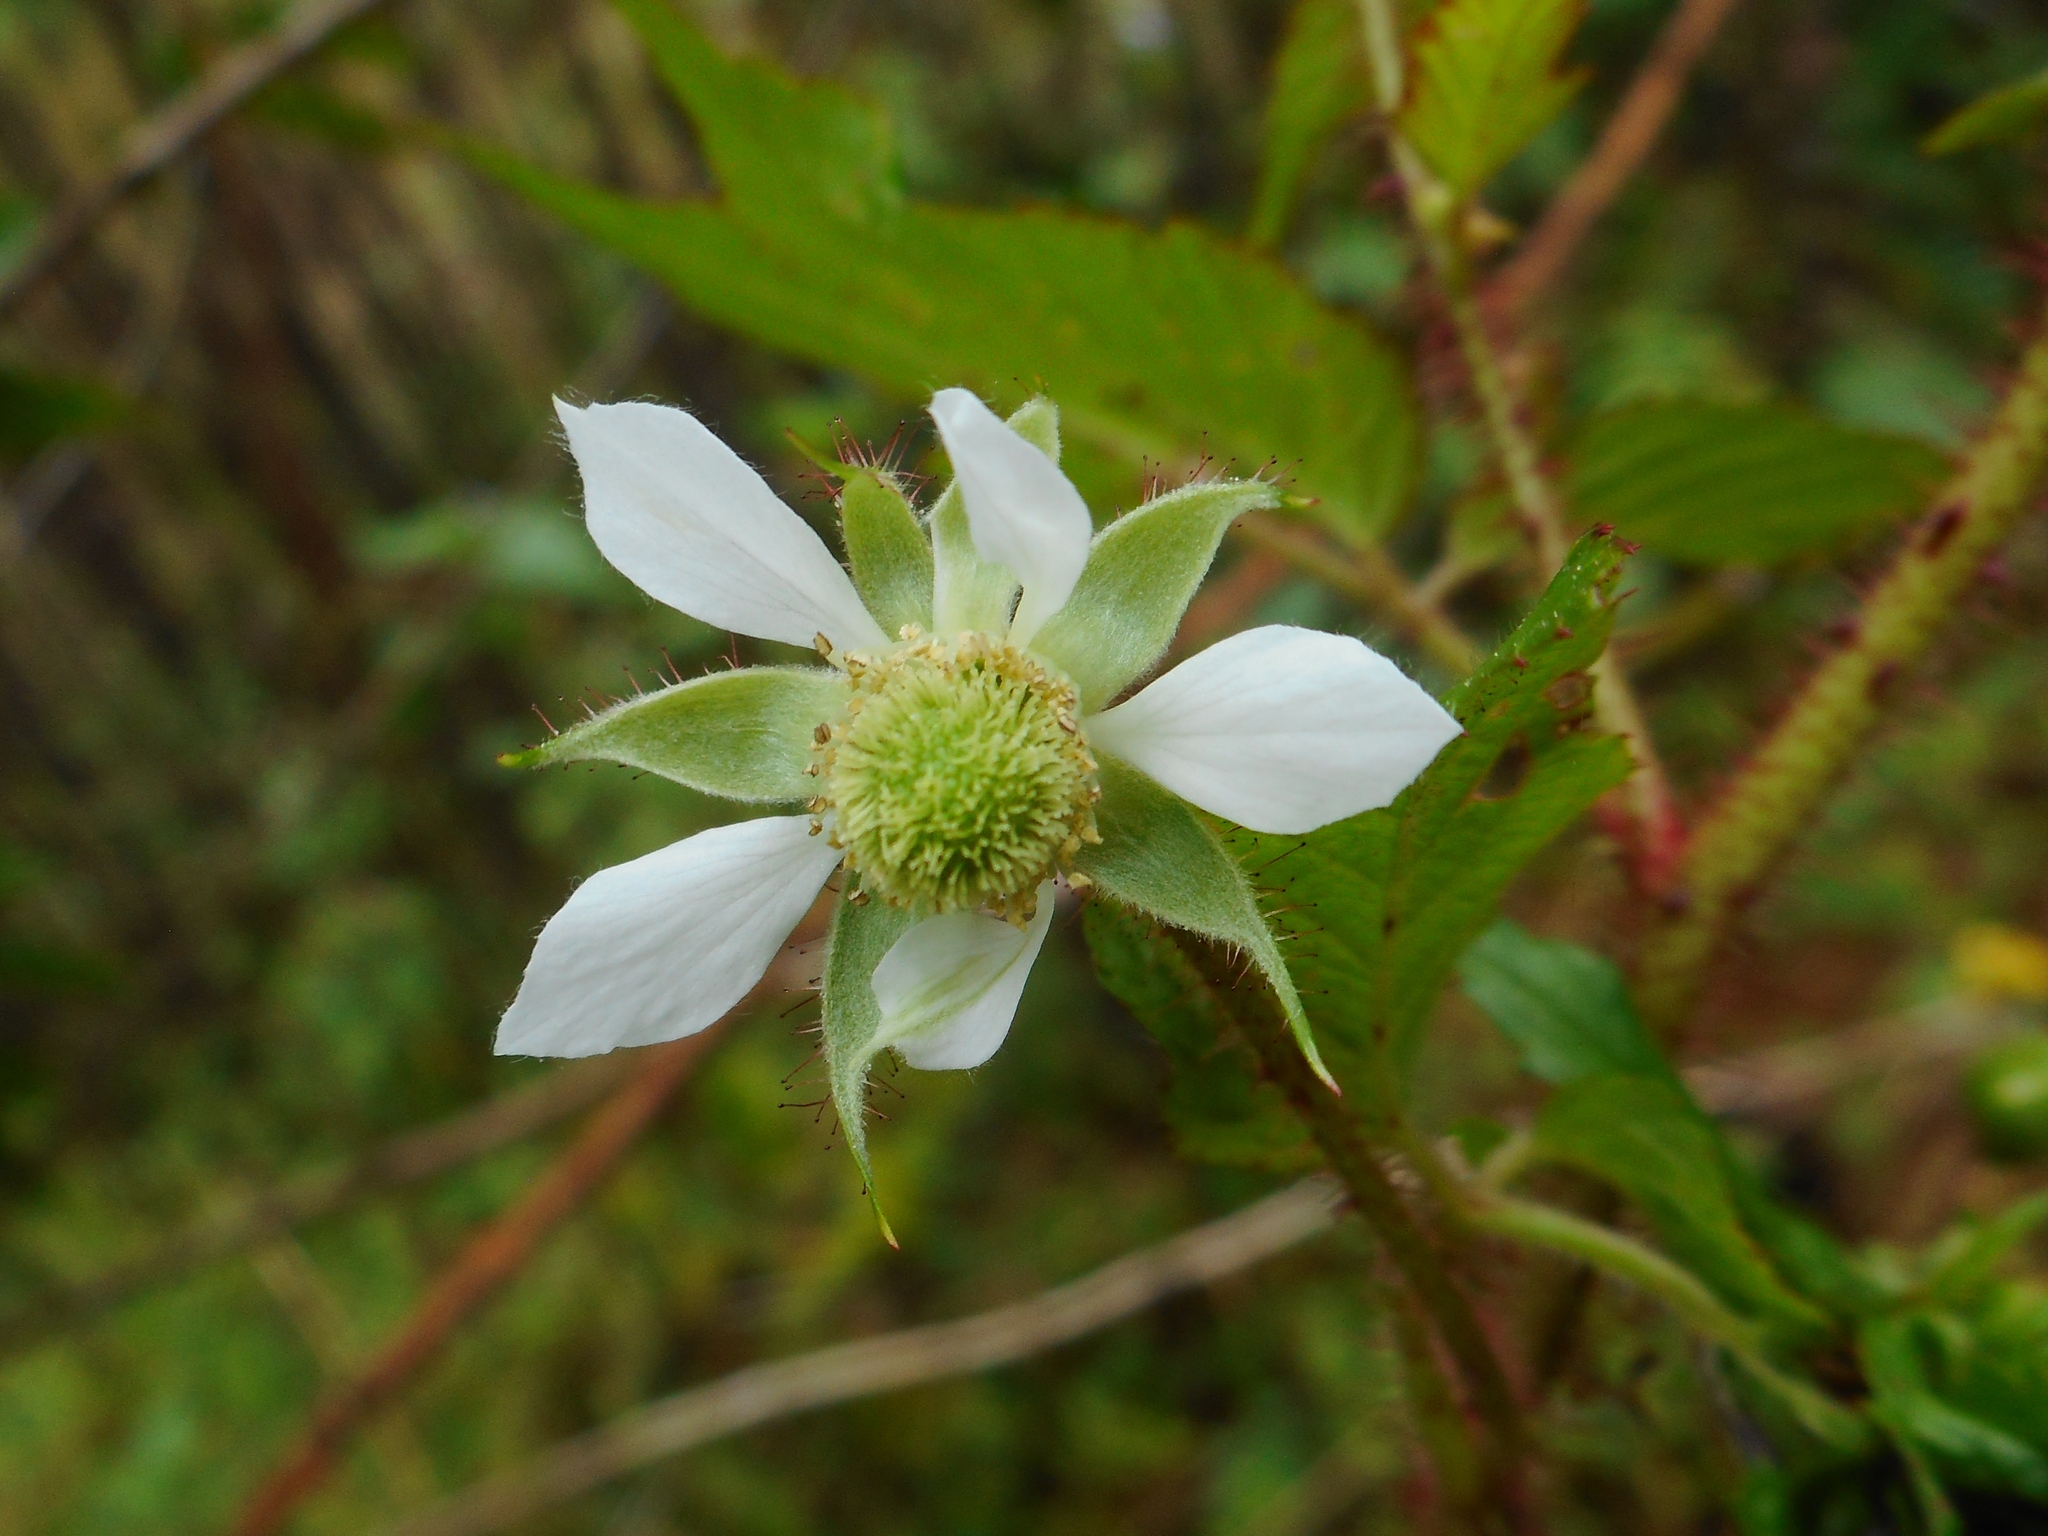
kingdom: Plantae
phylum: Tracheophyta
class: Magnoliopsida
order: Rosales
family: Rosaceae
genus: Rubus
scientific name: Rubus sumatranus
